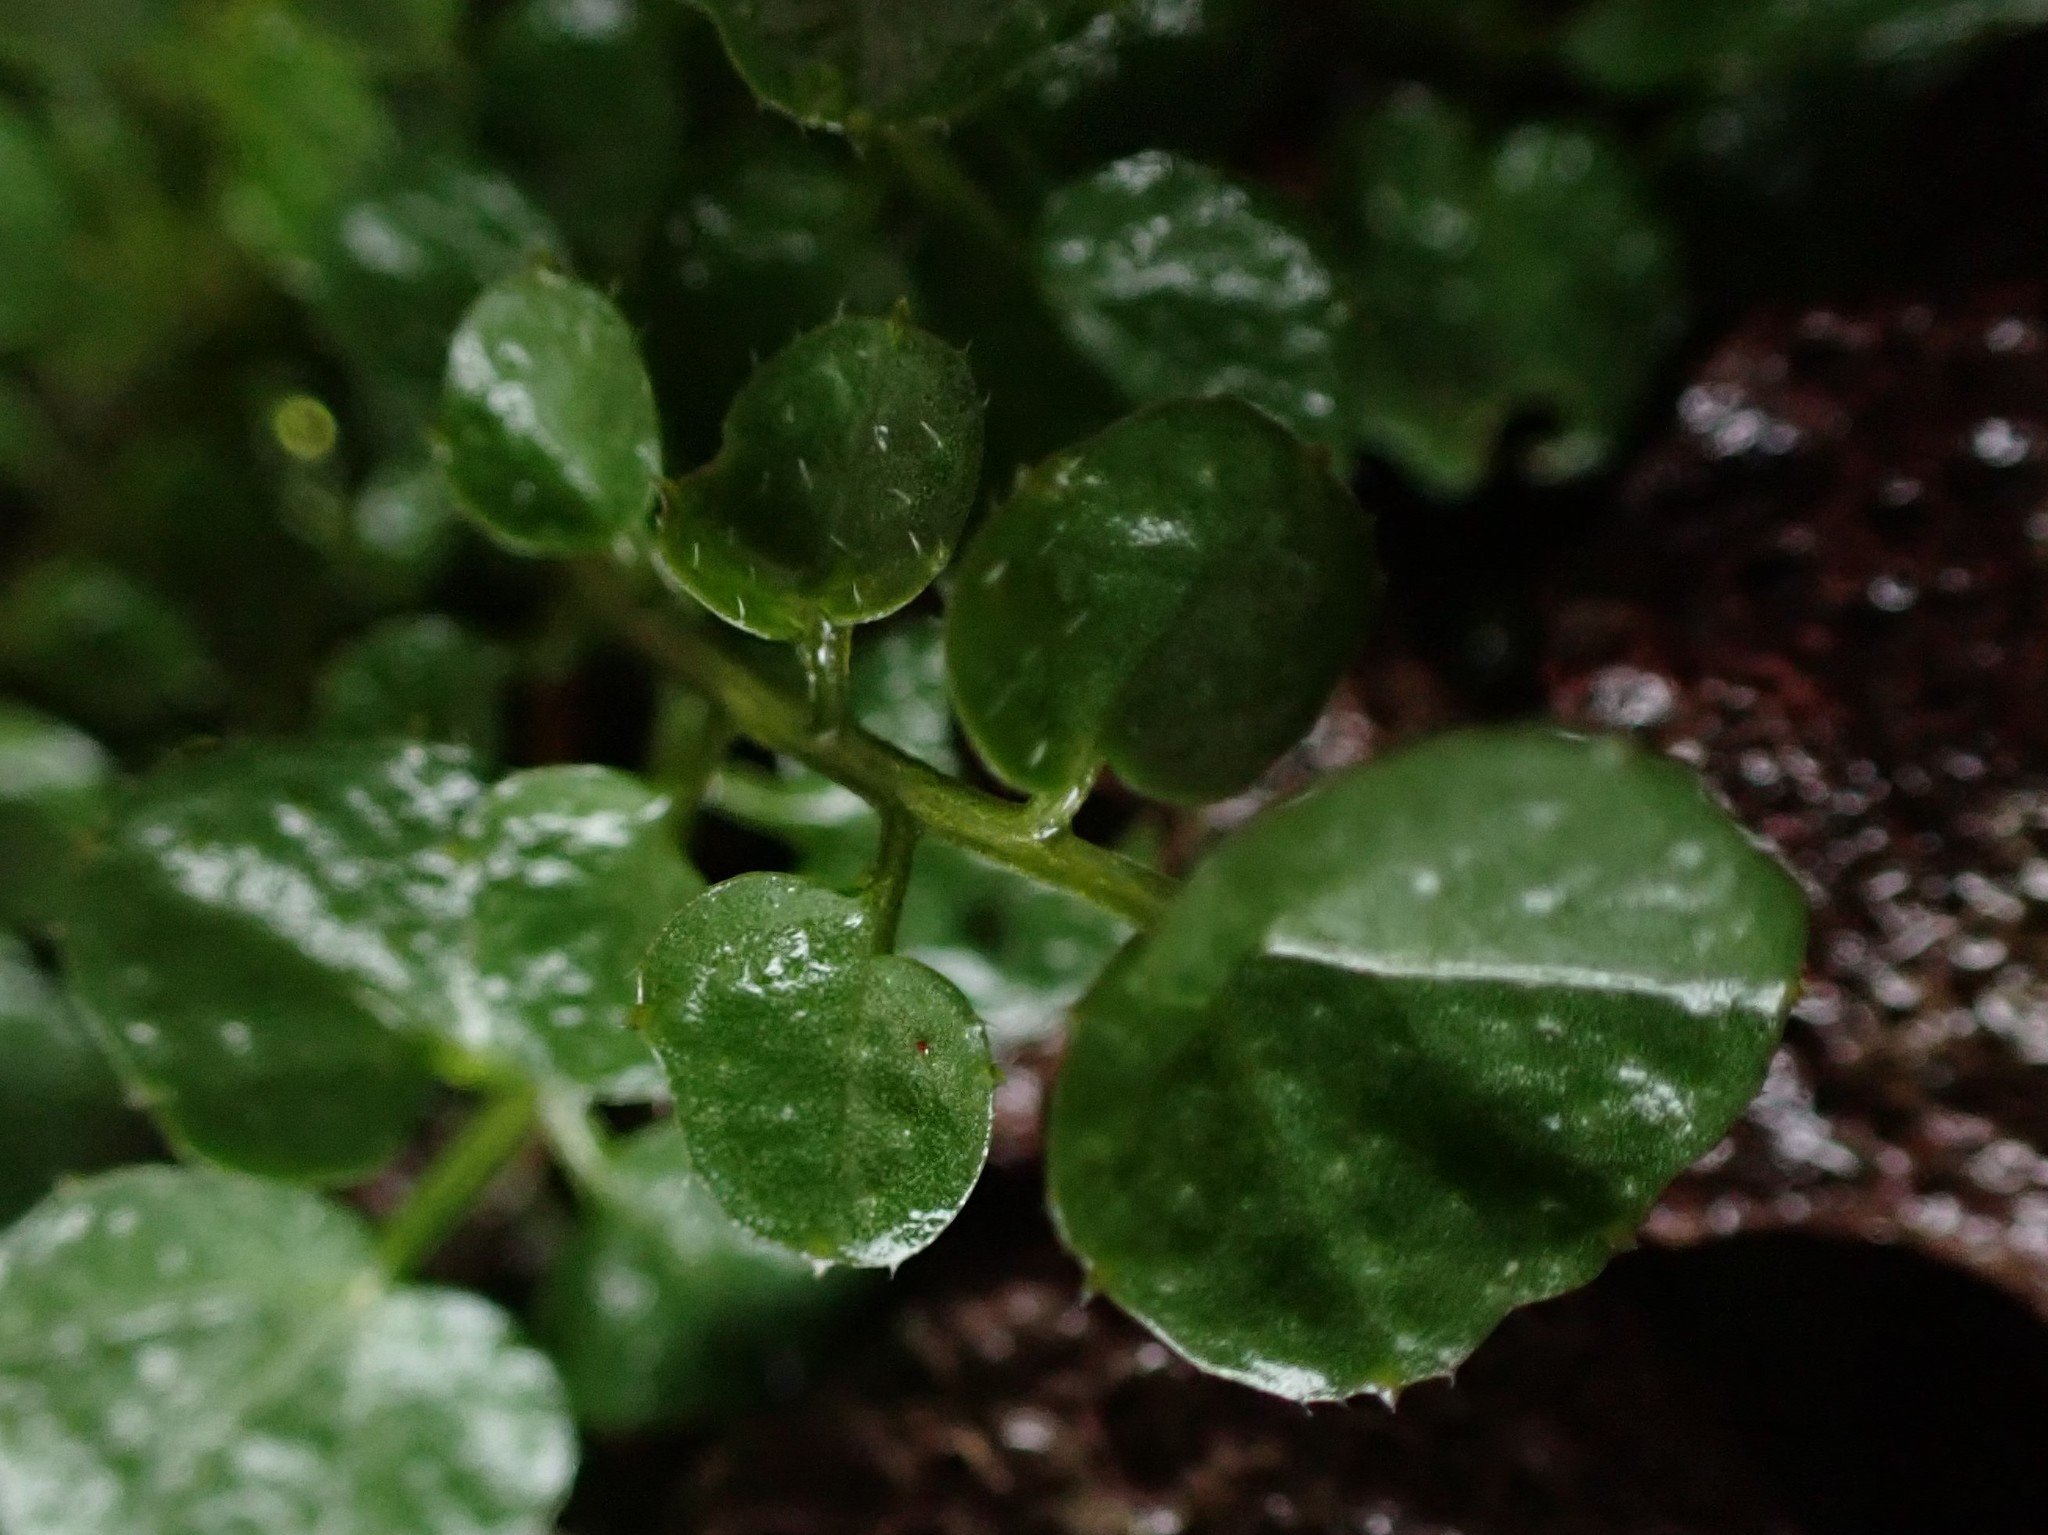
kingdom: Plantae
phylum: Tracheophyta
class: Magnoliopsida
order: Brassicales
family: Brassicaceae
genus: Cardamine
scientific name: Cardamine hirsuta
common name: Hairy bittercress
